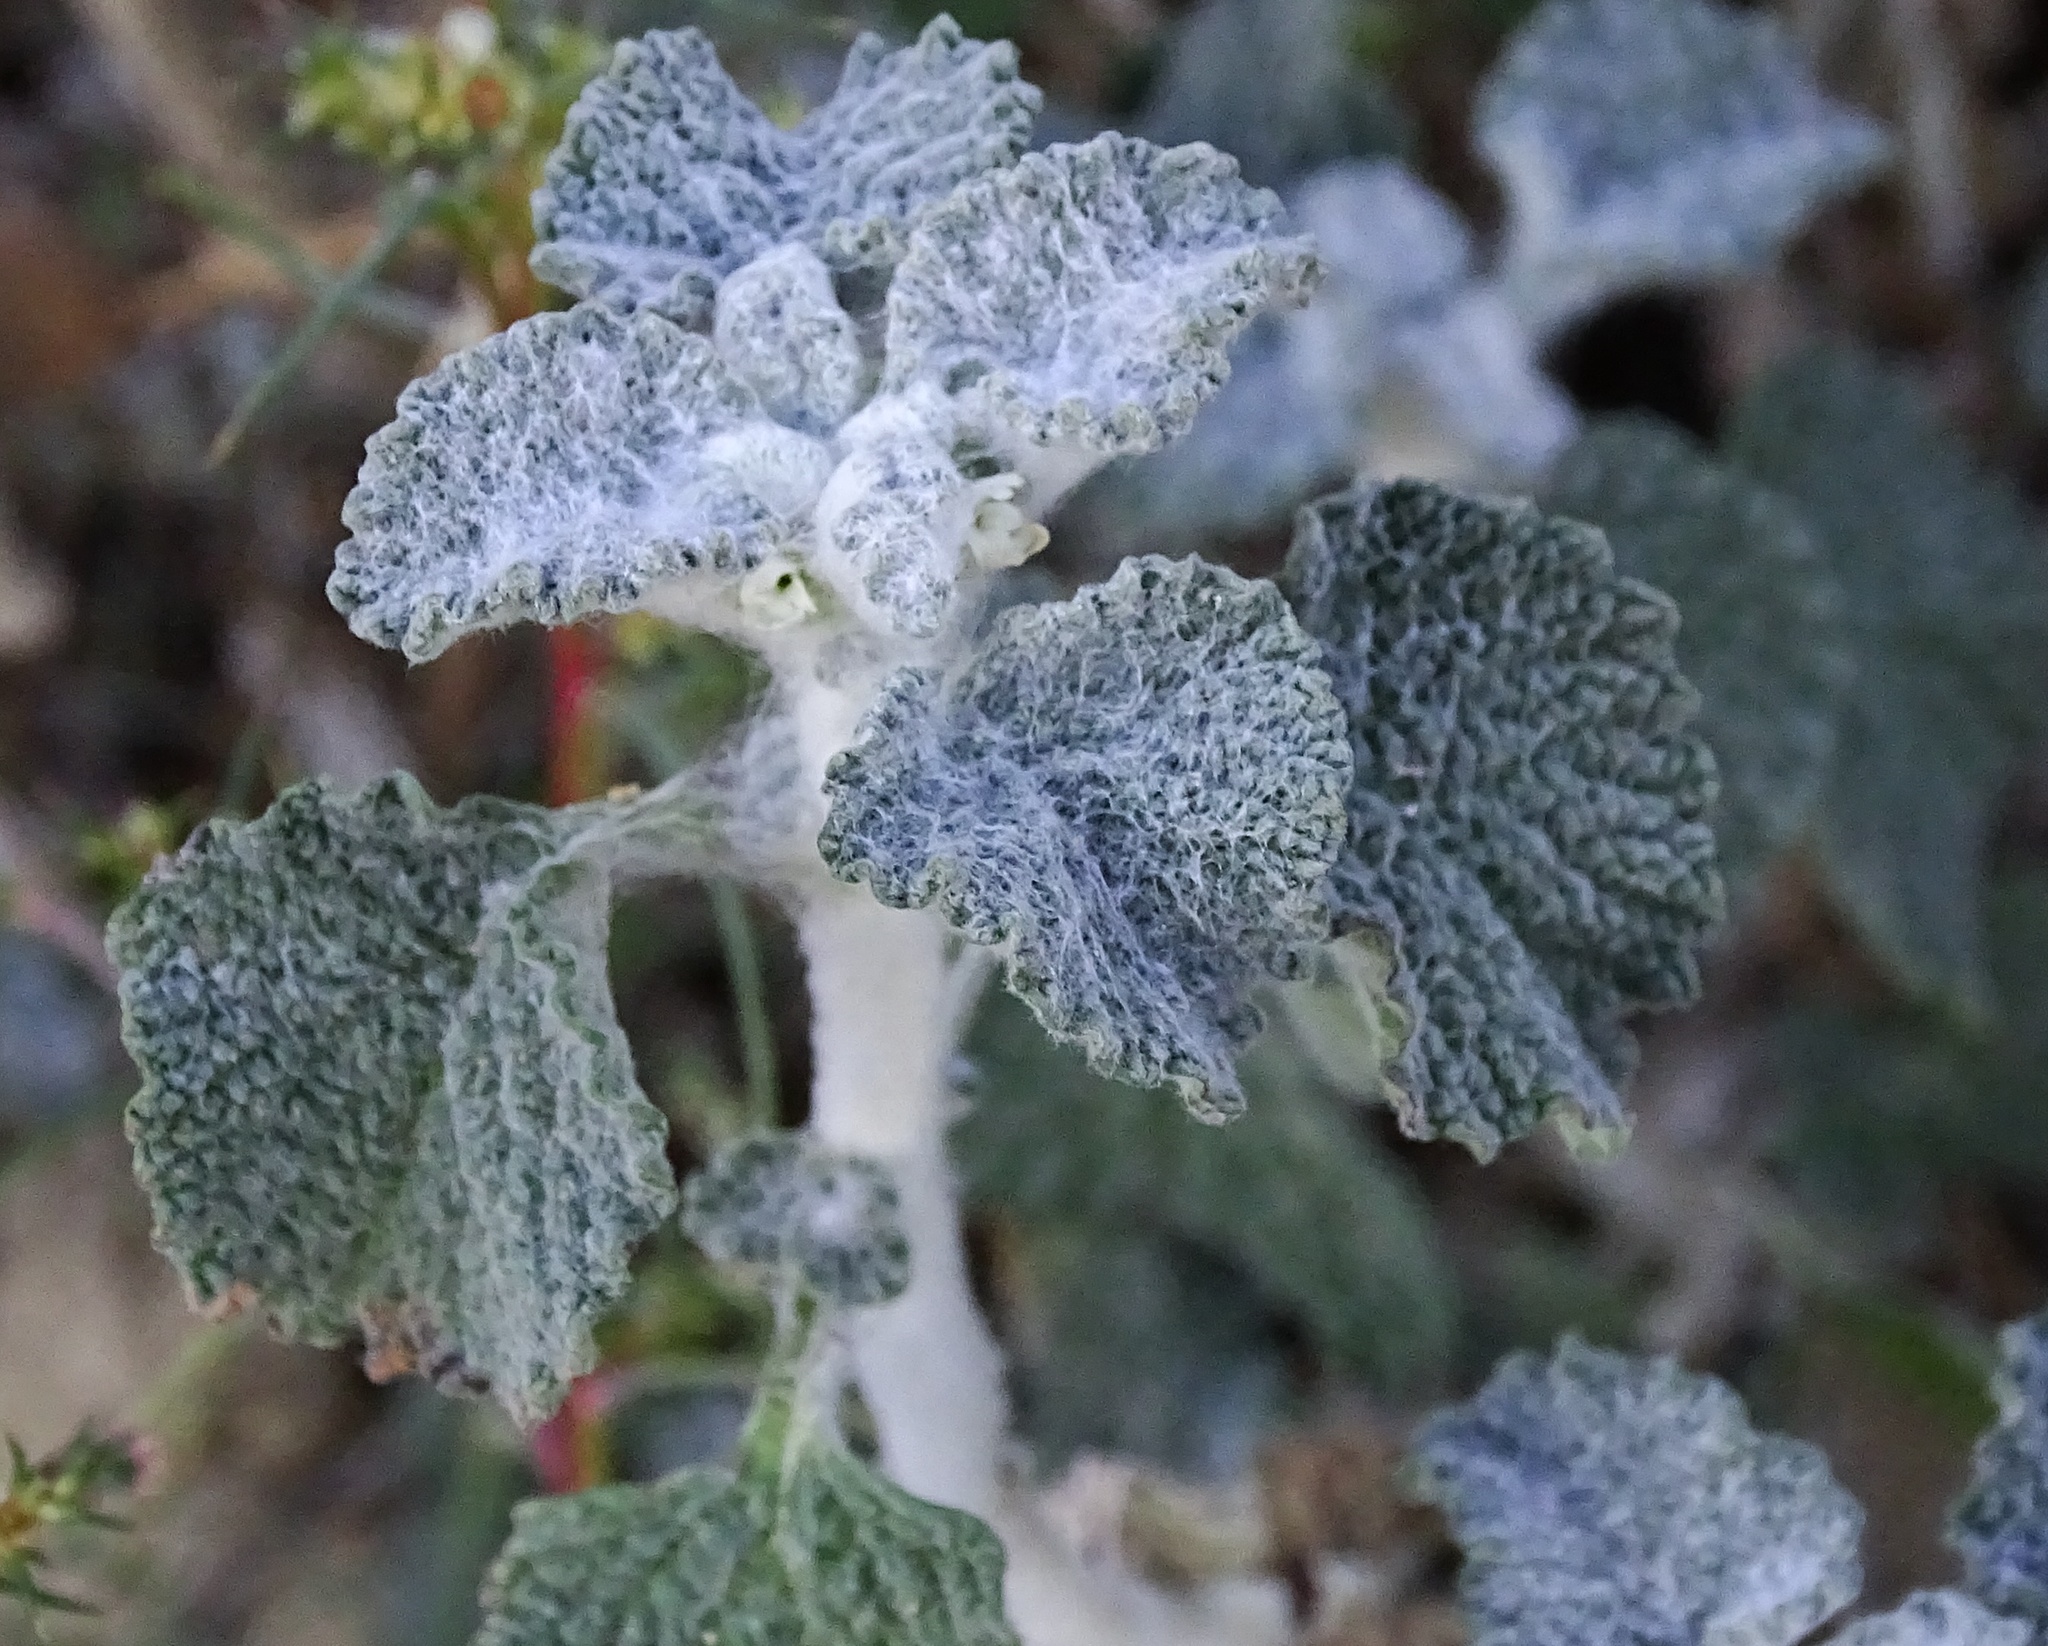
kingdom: Plantae
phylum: Tracheophyta
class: Magnoliopsida
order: Lamiales
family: Lamiaceae
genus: Marrubium
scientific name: Marrubium vulgare
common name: Horehound
